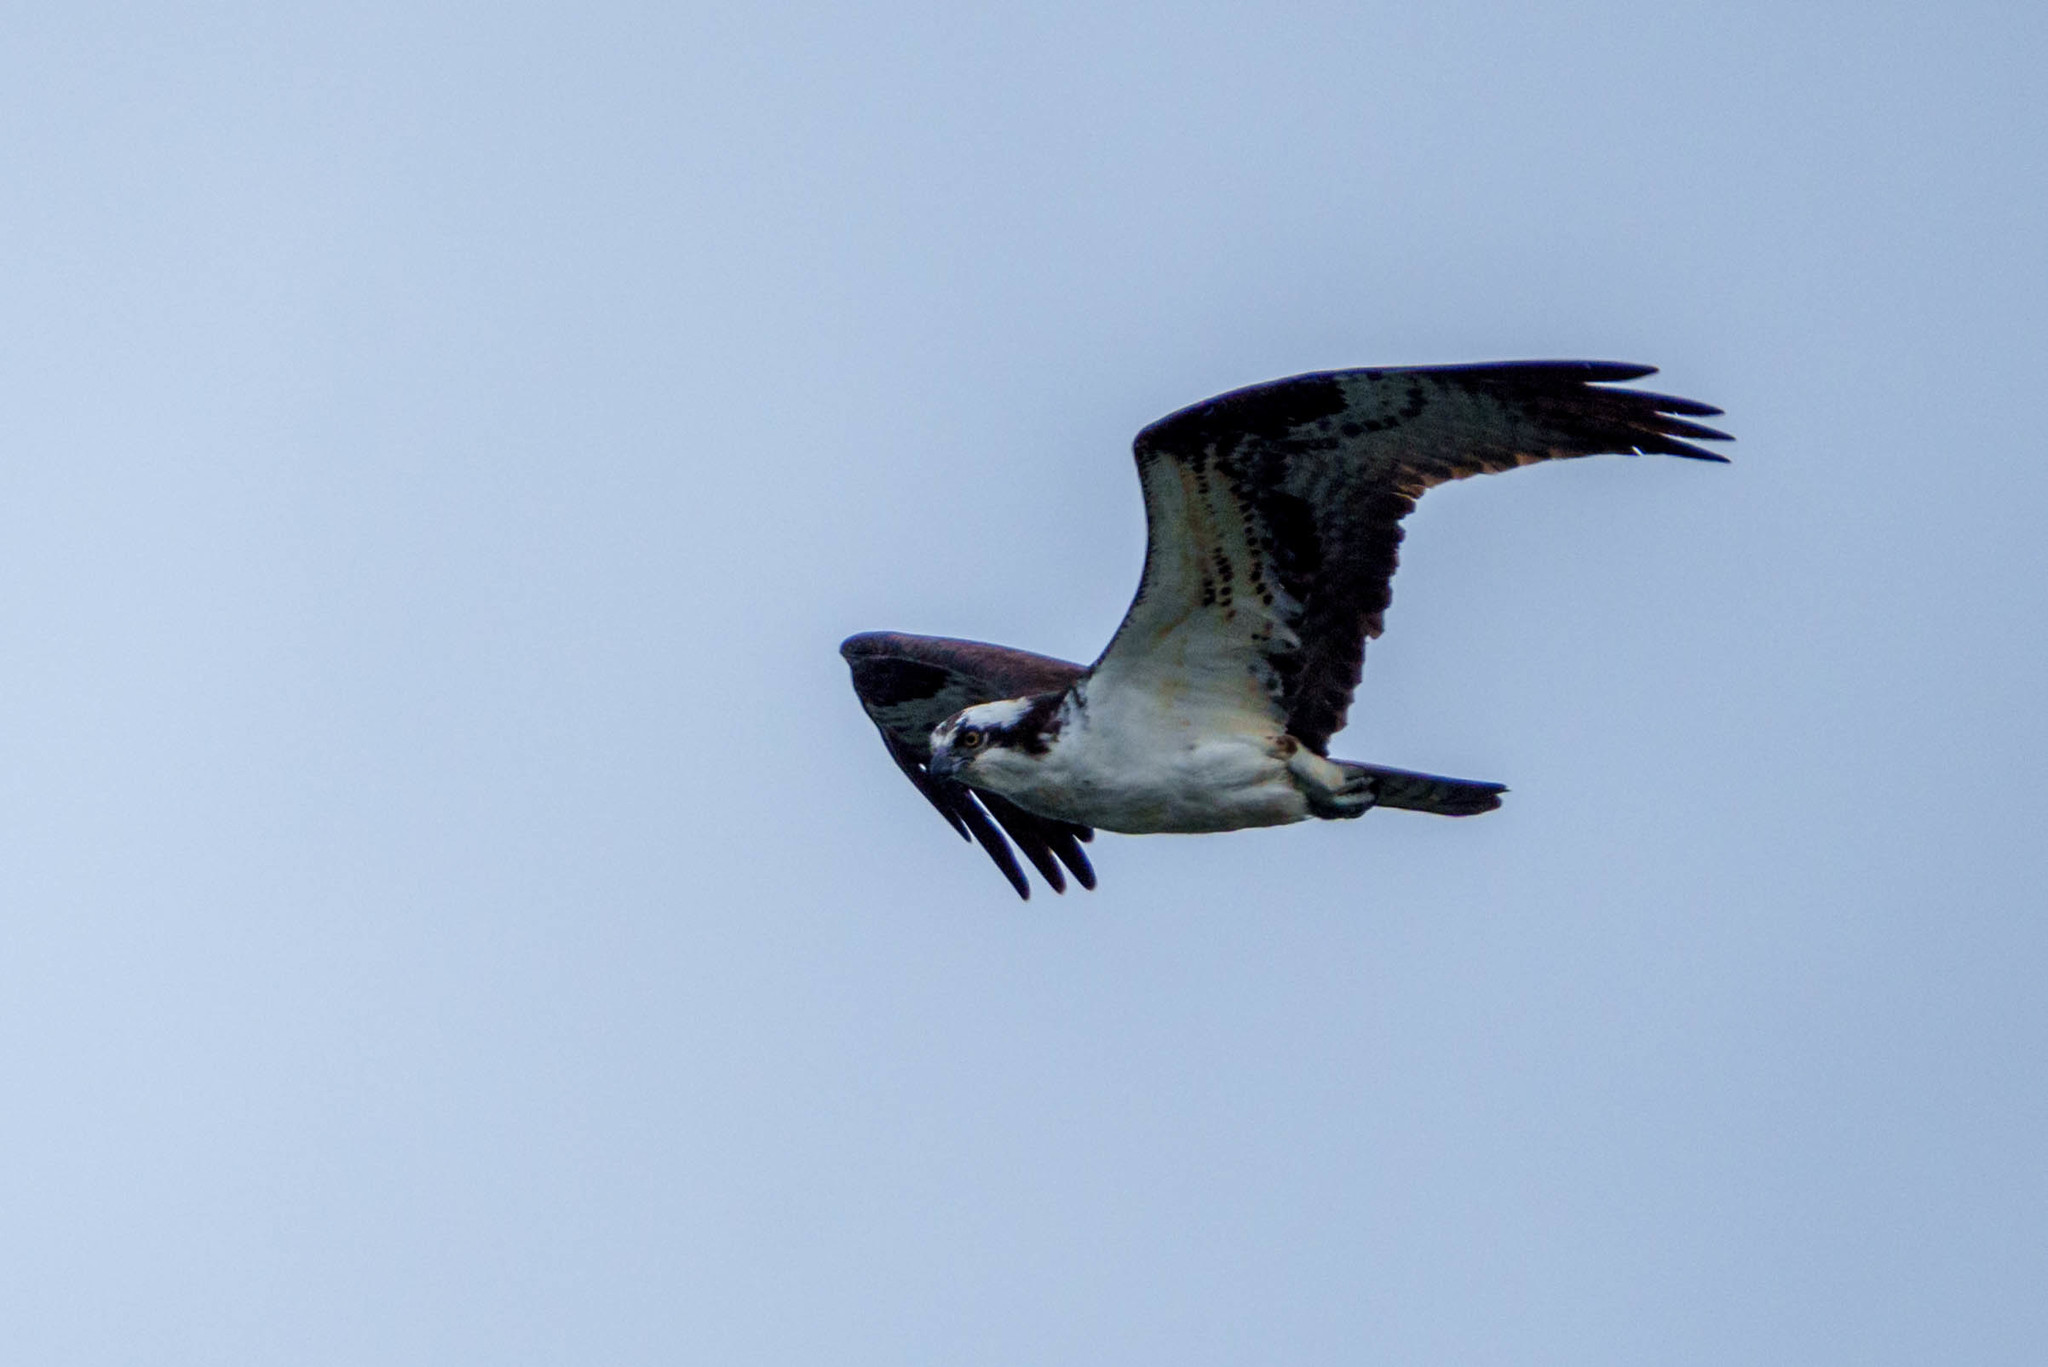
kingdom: Animalia
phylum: Chordata
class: Aves
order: Accipitriformes
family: Pandionidae
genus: Pandion
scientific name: Pandion haliaetus
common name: Osprey
